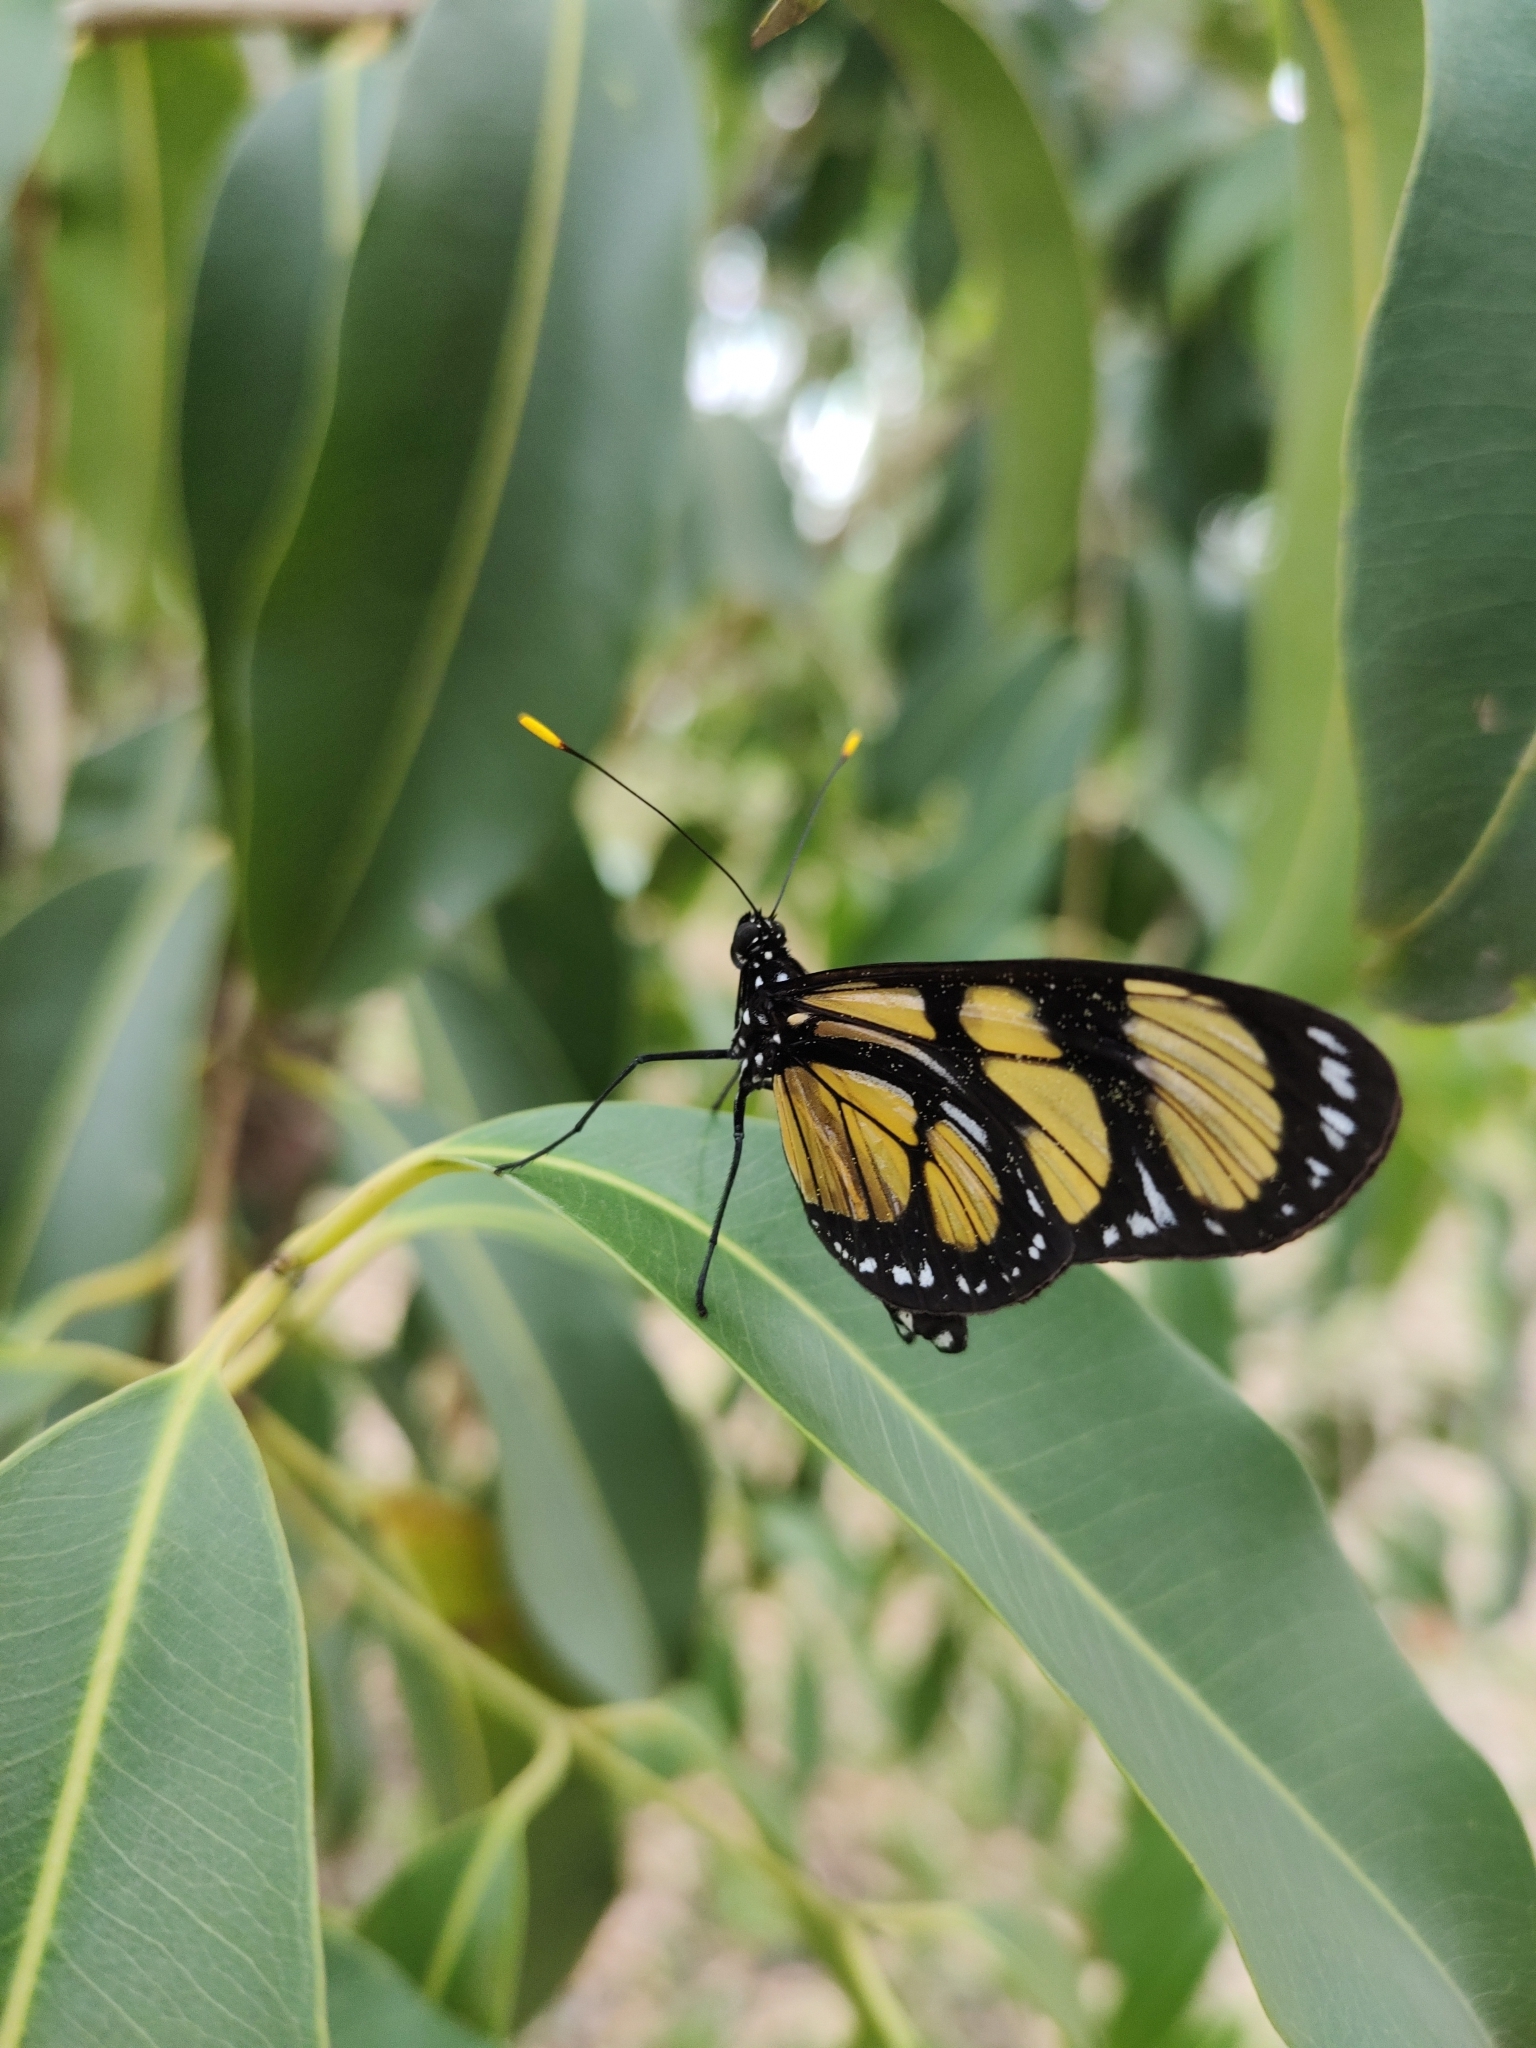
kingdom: Animalia
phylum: Arthropoda
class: Insecta
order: Lepidoptera
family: Nymphalidae
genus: Methona
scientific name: Methona themisto
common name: Themisto amberwing
